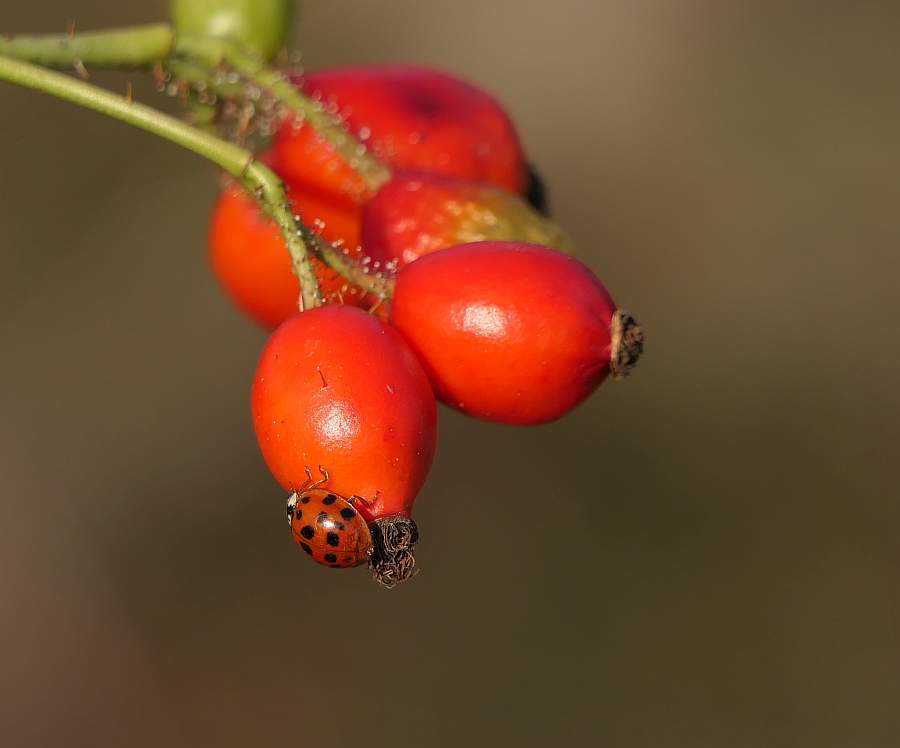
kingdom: Animalia
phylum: Arthropoda
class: Insecta
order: Coleoptera
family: Coccinellidae
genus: Harmonia
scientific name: Harmonia axyridis
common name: Harlequin ladybird
